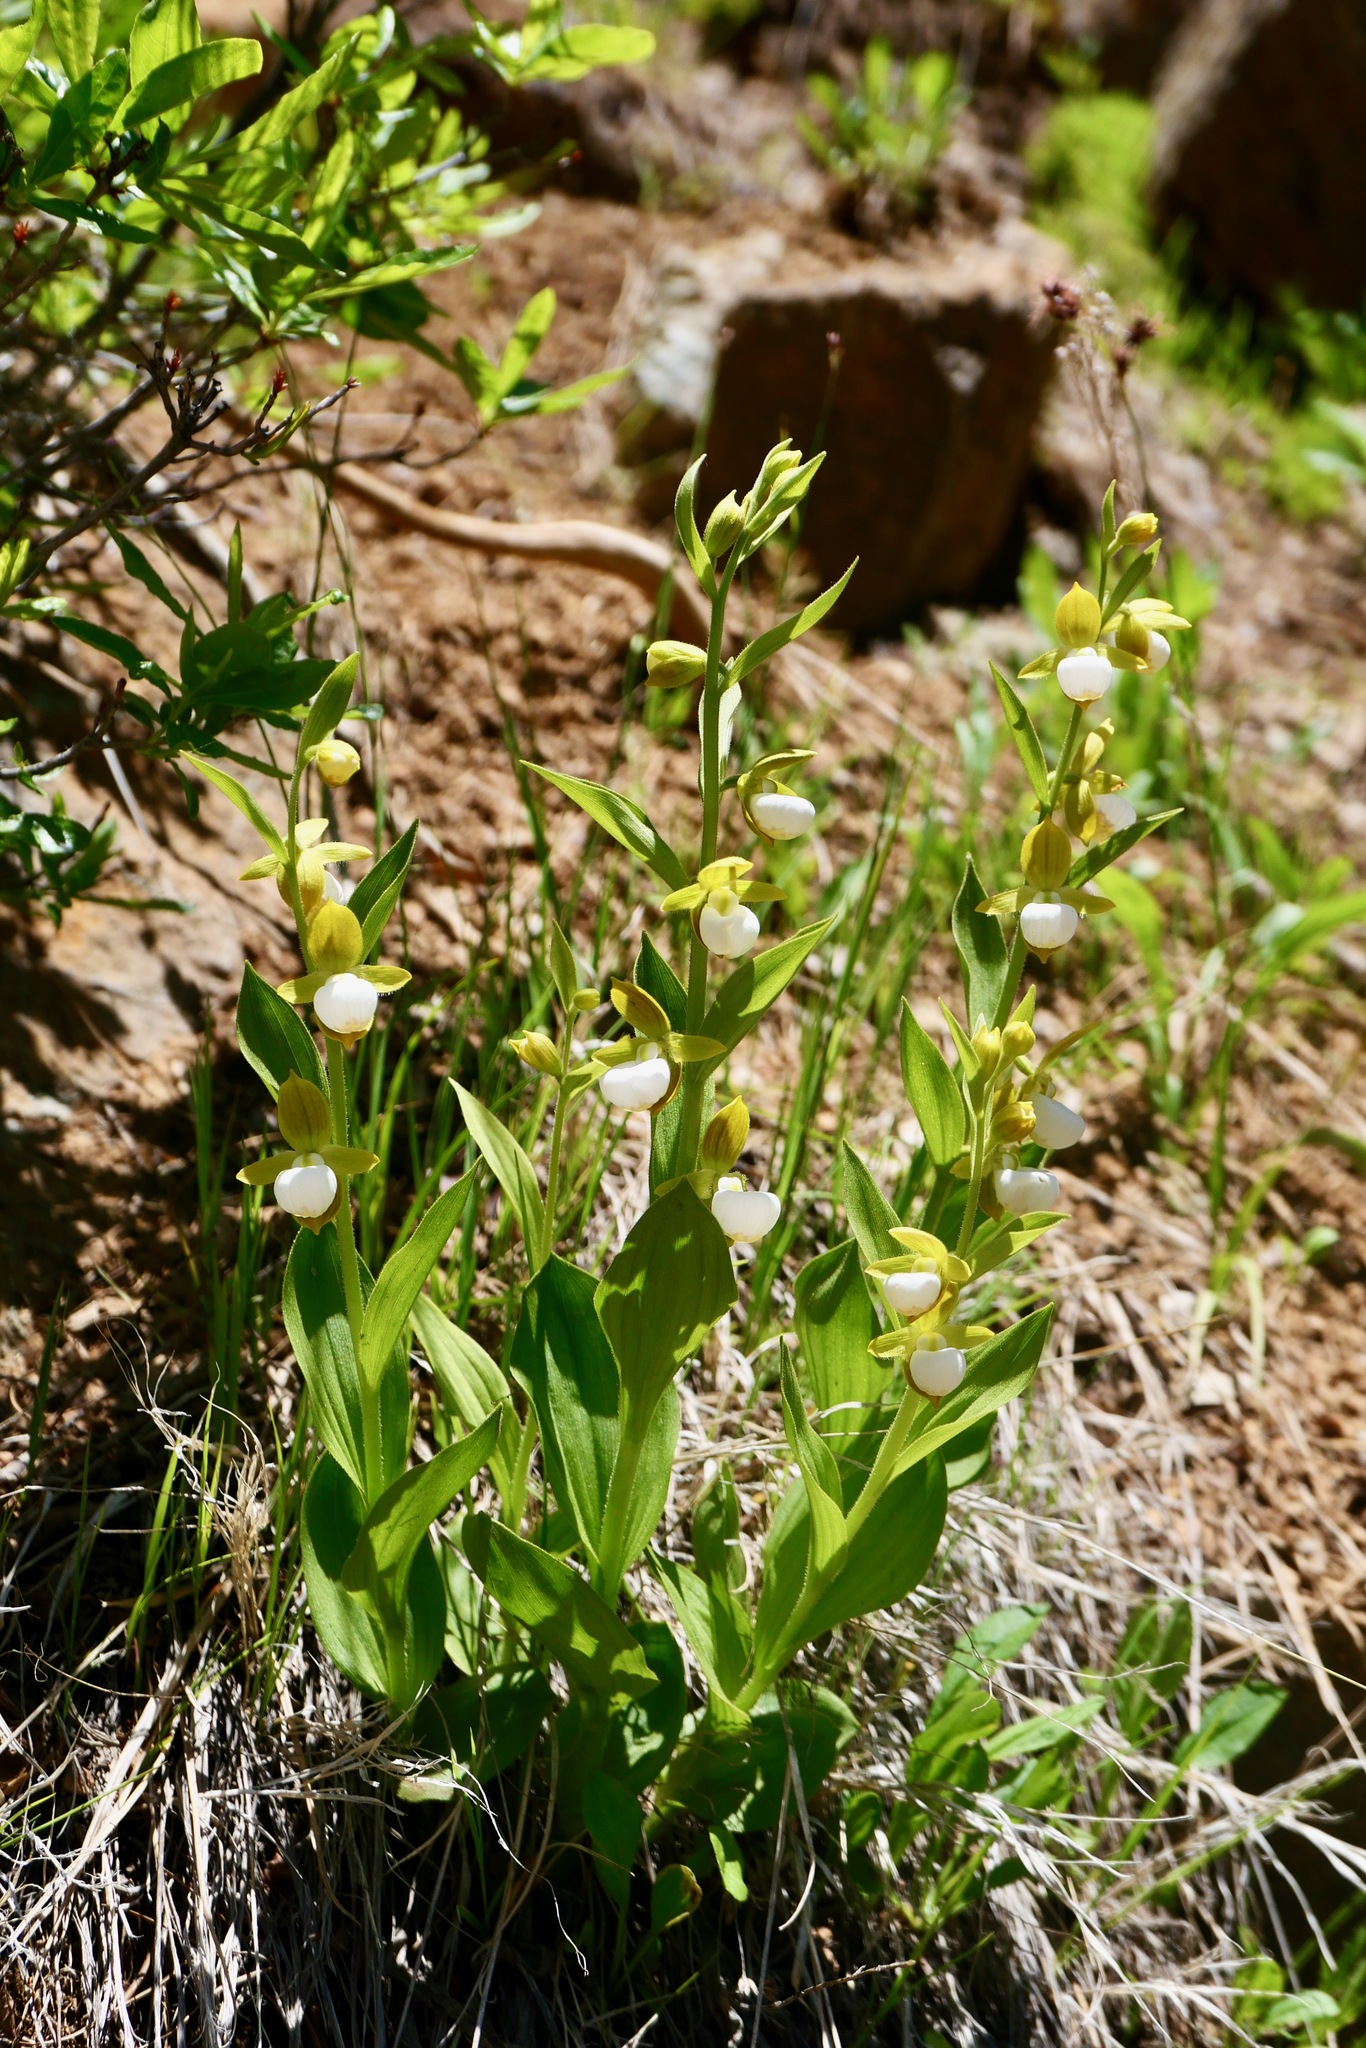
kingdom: Plantae
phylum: Tracheophyta
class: Liliopsida
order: Asparagales
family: Orchidaceae
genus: Cypripedium
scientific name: Cypripedium californicum
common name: California lady's slipper
